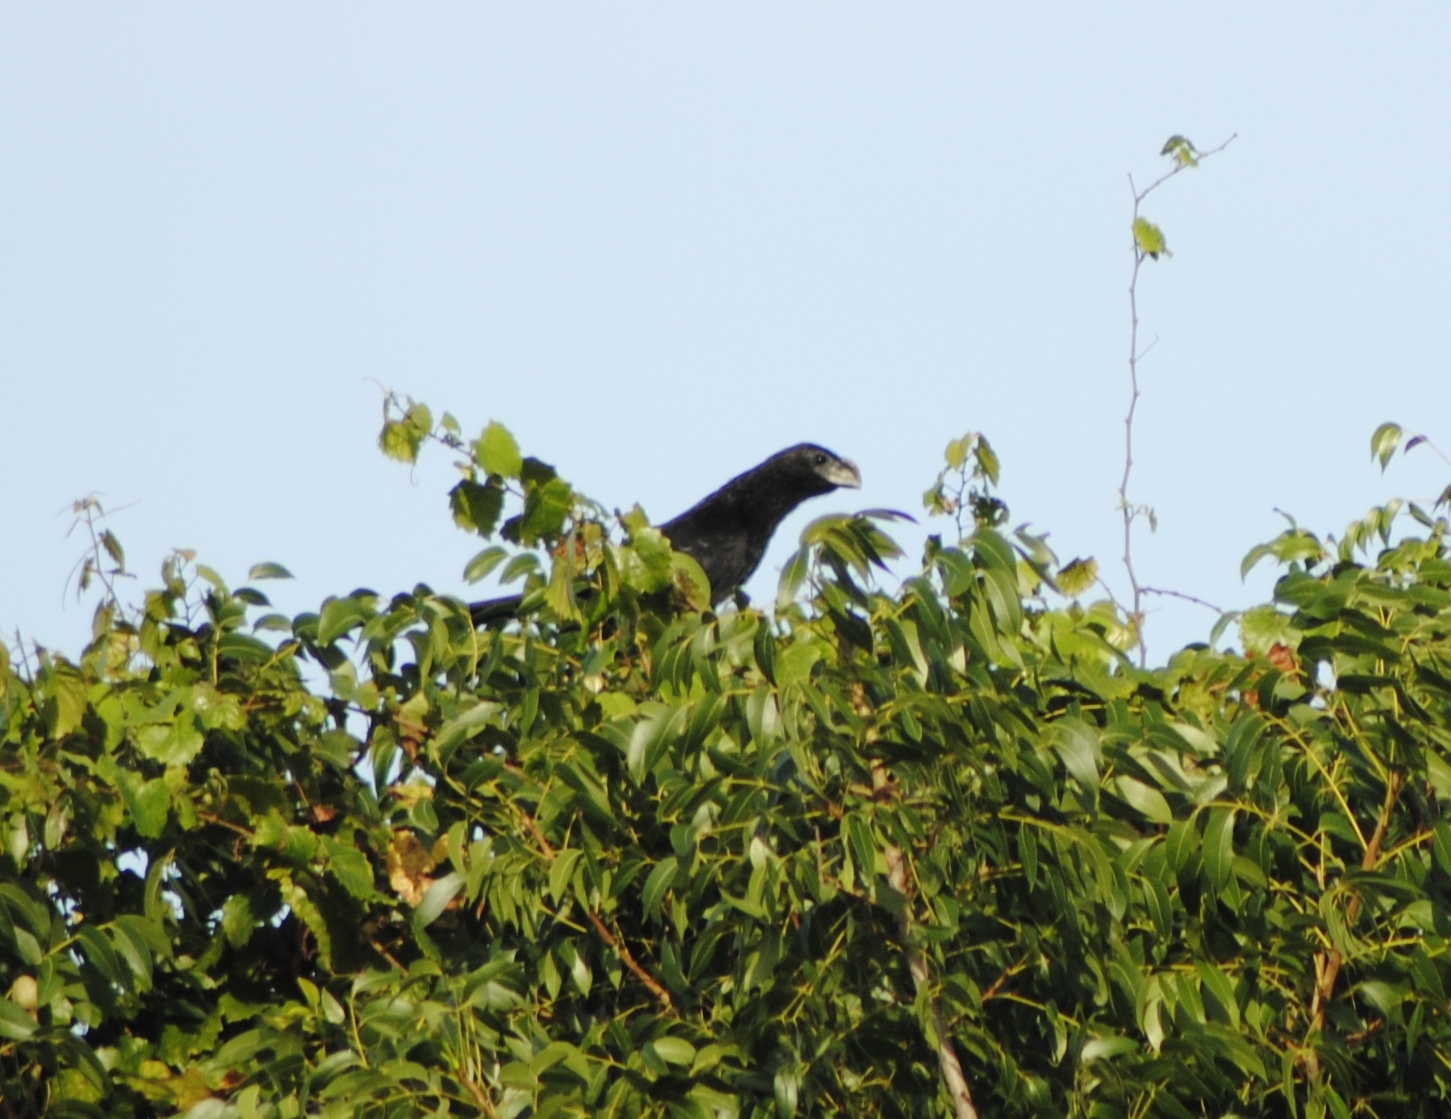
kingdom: Animalia
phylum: Chordata
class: Aves
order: Cuculiformes
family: Cuculidae
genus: Crotophaga
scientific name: Crotophaga ani
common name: Smooth-billed ani
